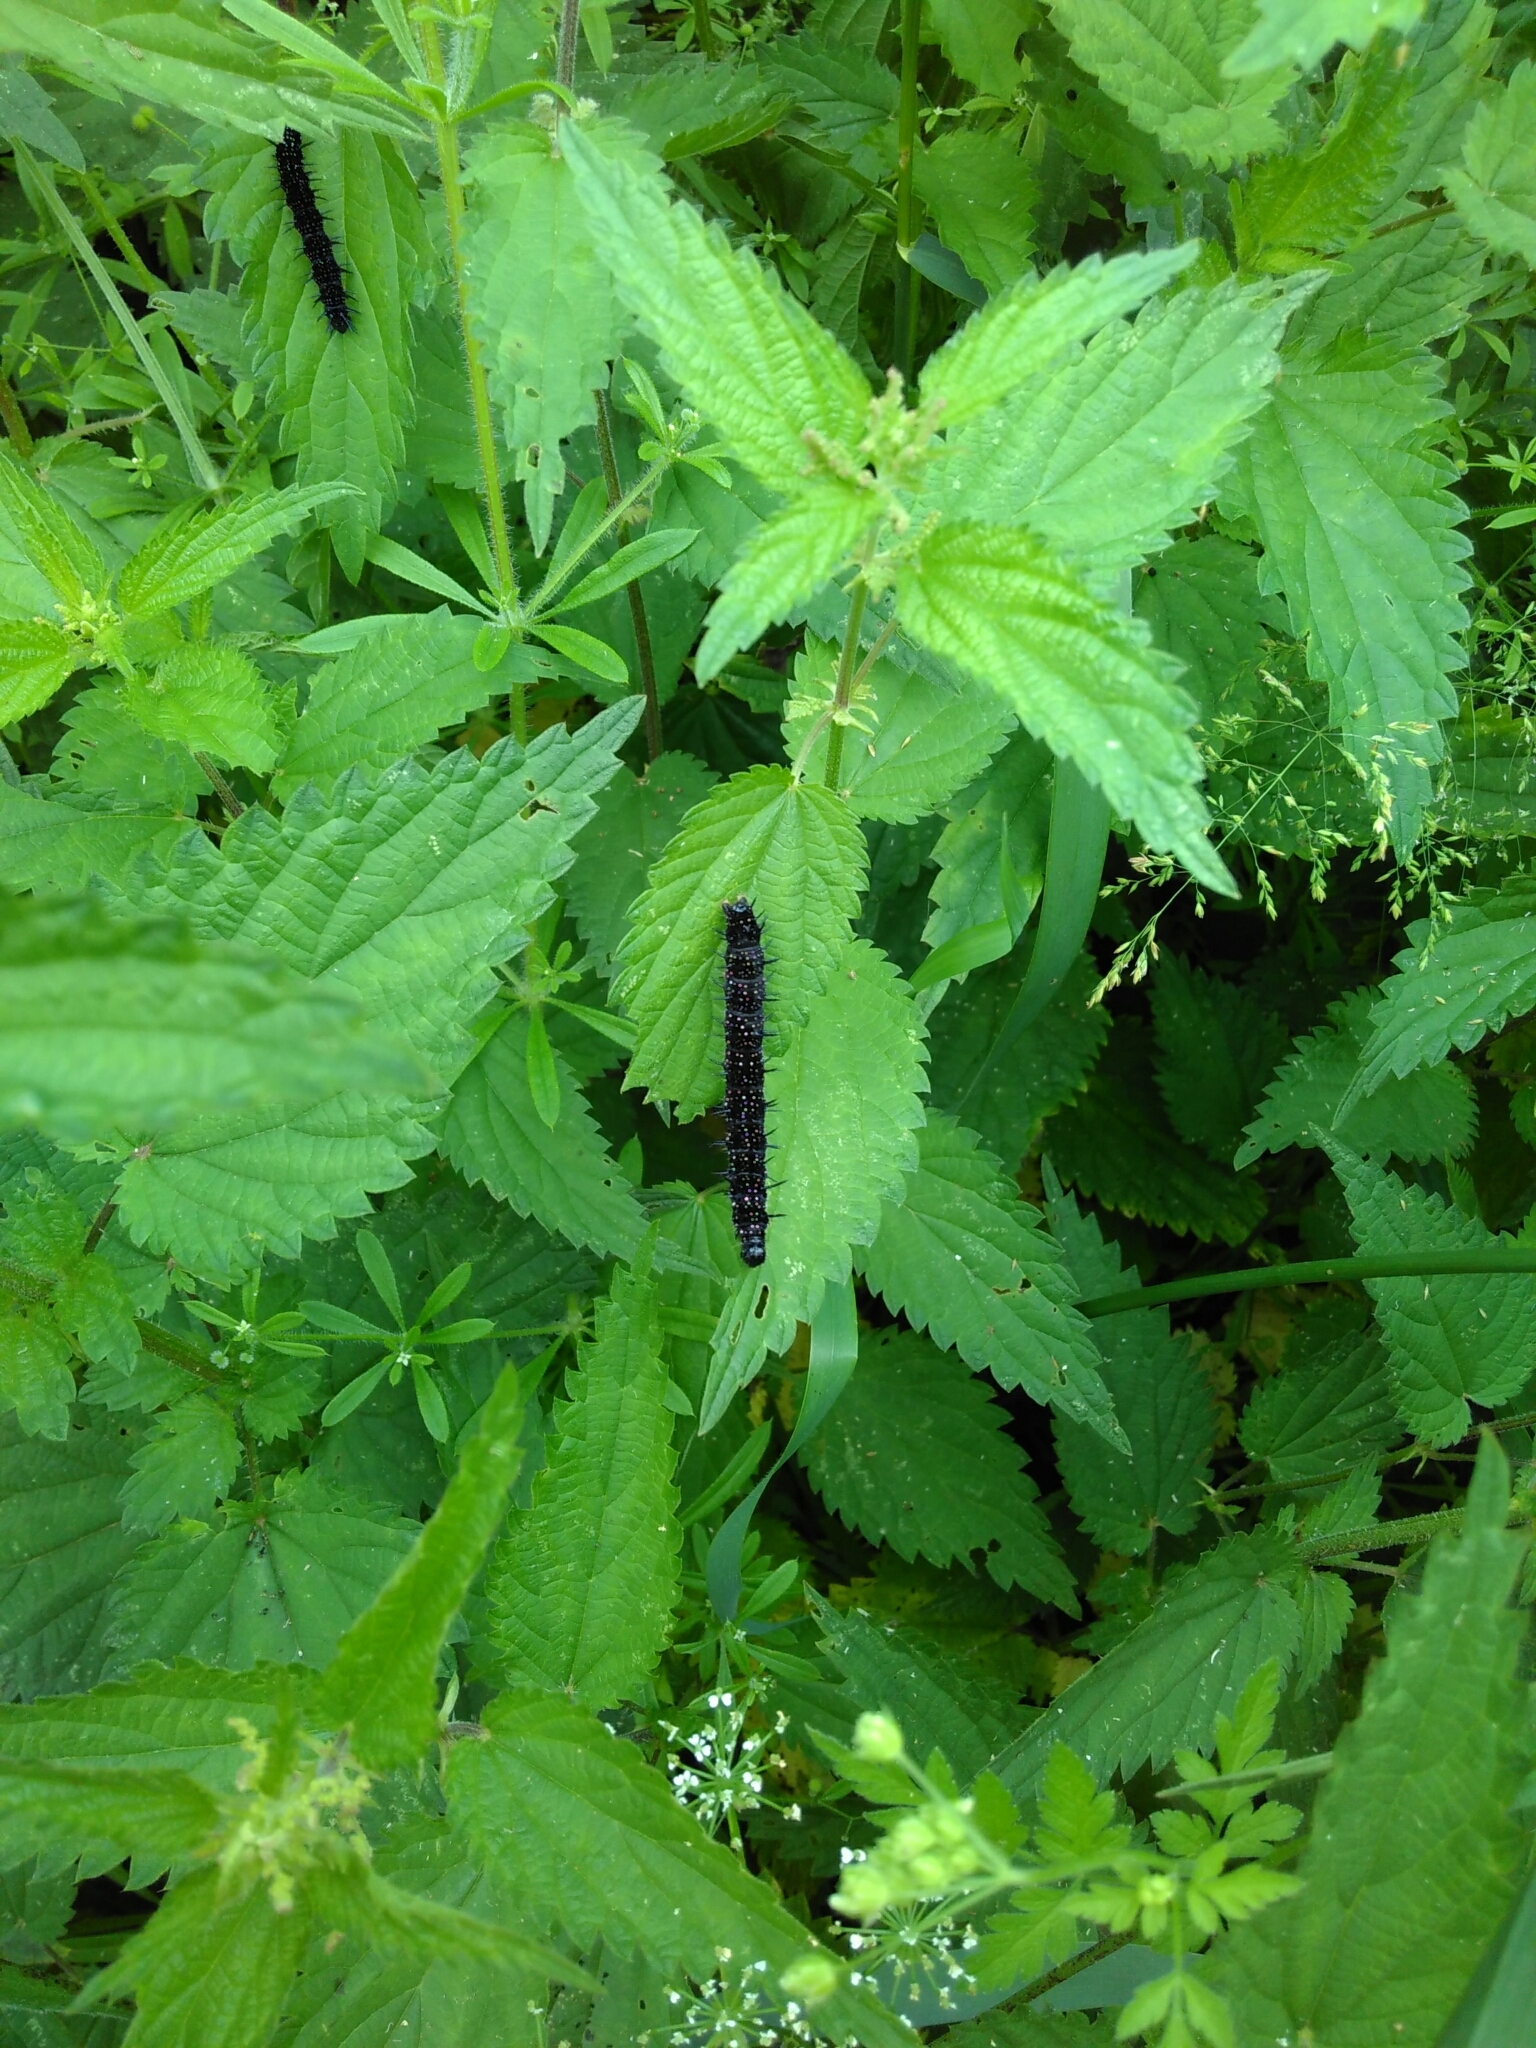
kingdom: Animalia
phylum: Arthropoda
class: Insecta
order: Lepidoptera
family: Nymphalidae
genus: Aglais
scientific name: Aglais io
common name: Peacock
